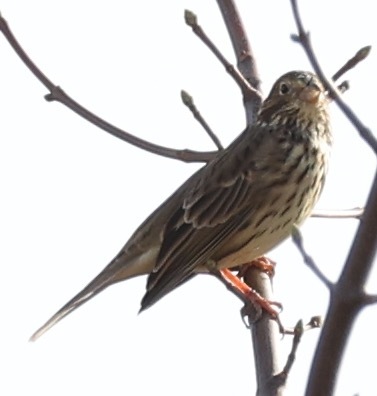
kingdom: Animalia
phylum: Chordata
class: Aves
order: Passeriformes
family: Emberizidae
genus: Emberiza
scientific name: Emberiza calandra
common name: Corn bunting
